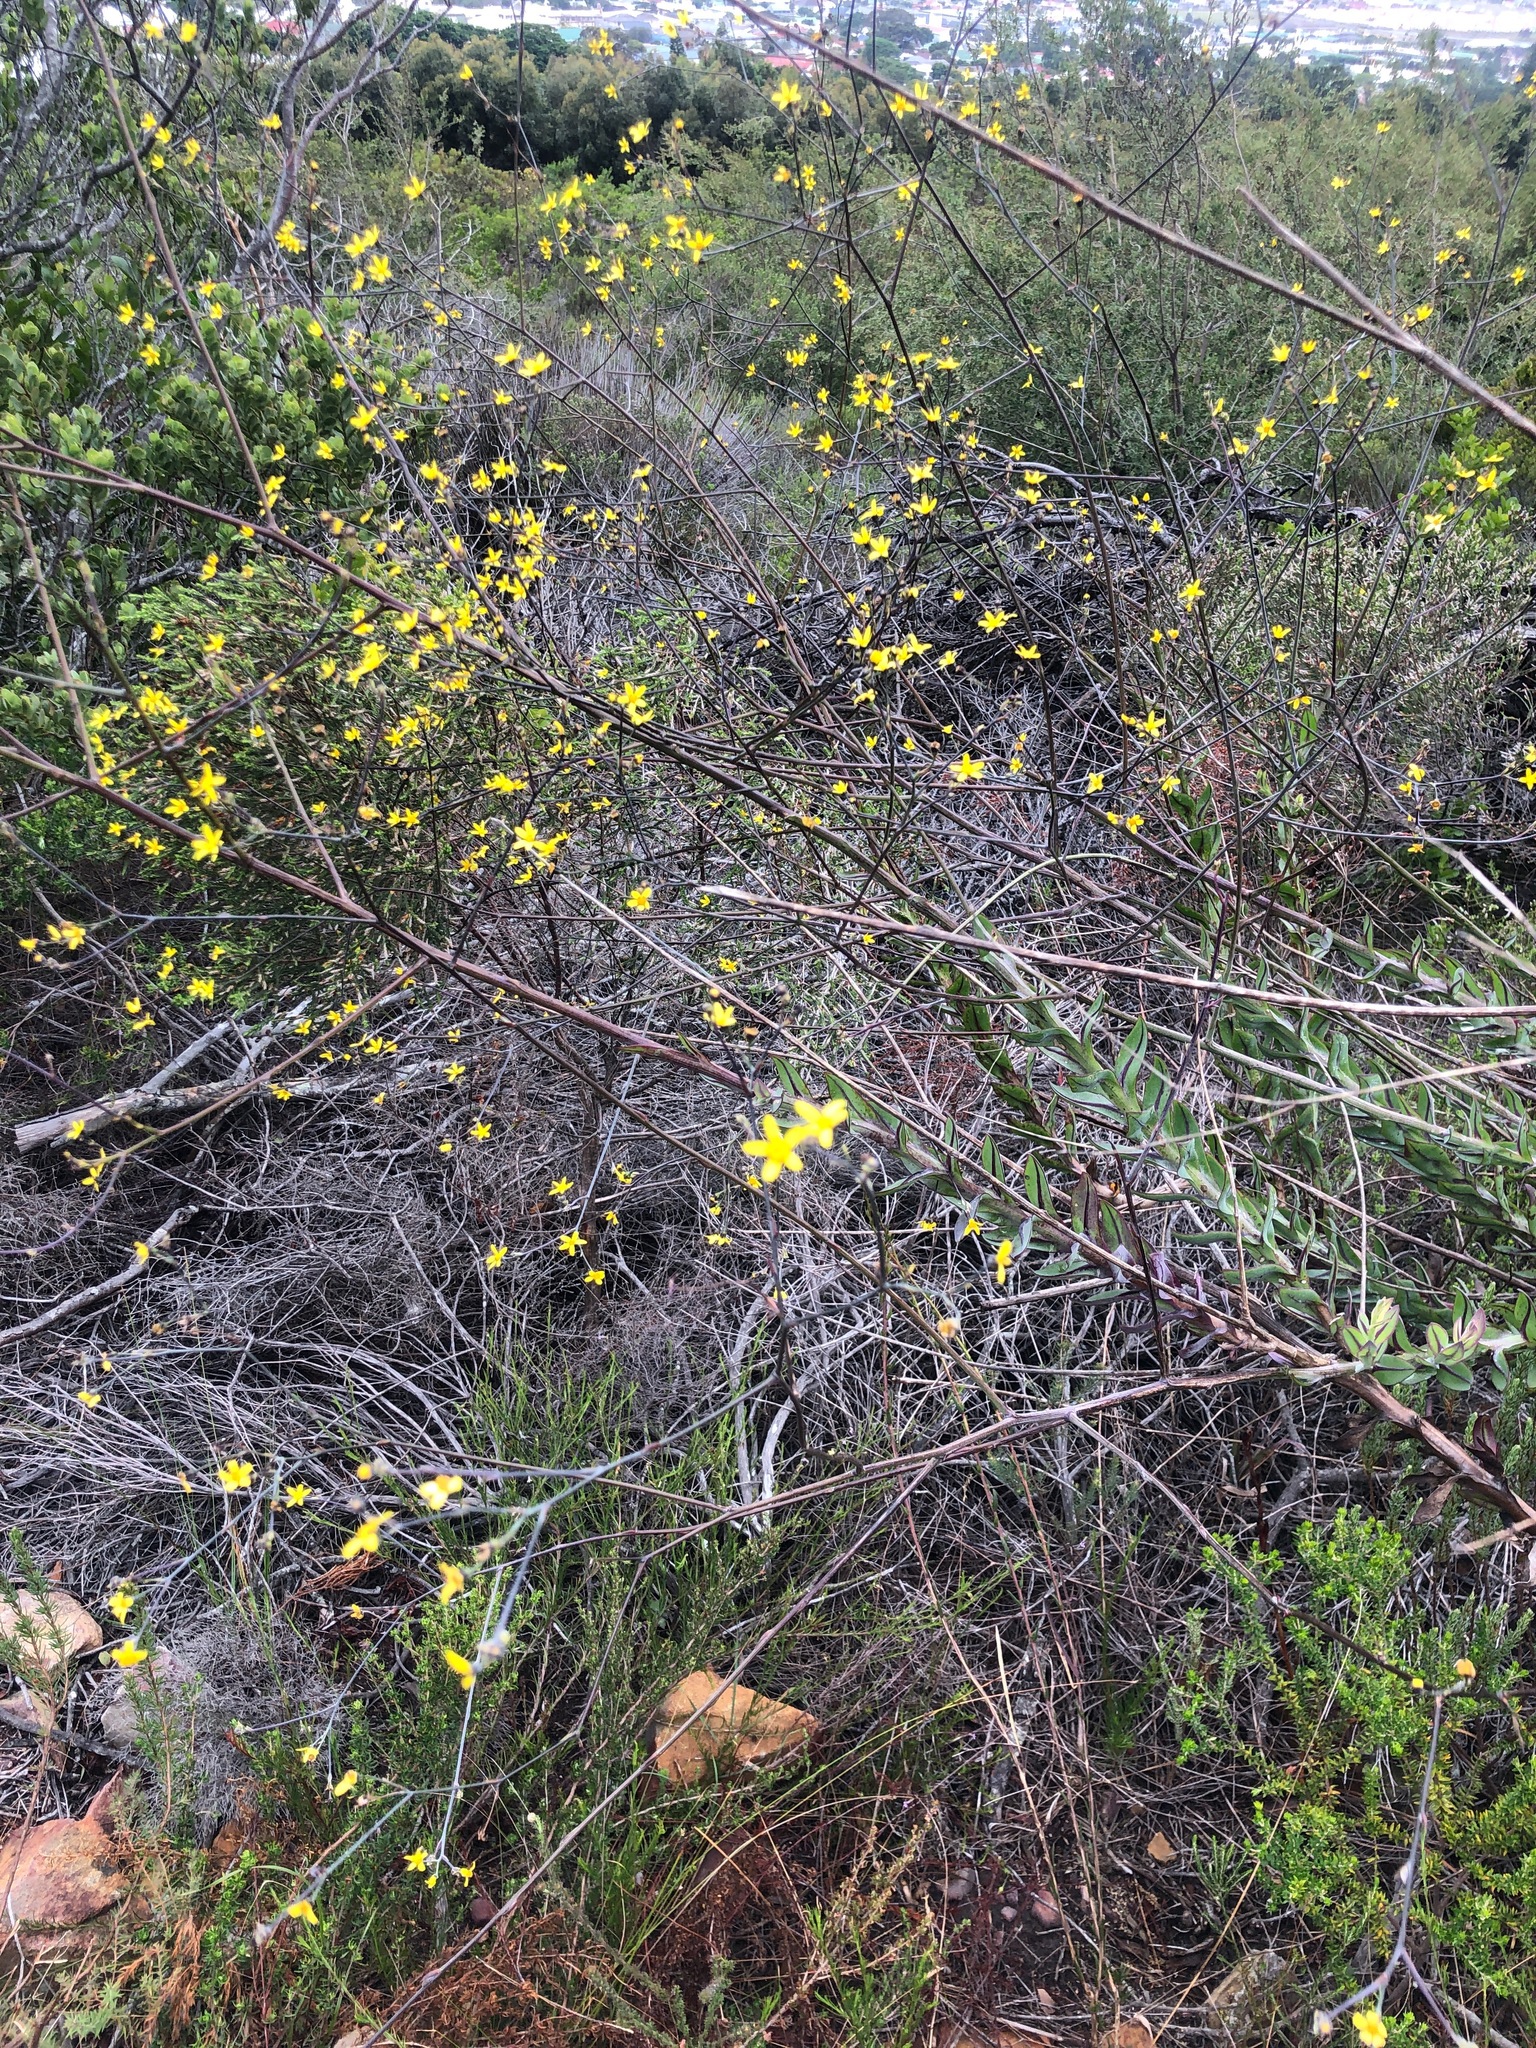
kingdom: Plantae
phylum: Tracheophyta
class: Magnoliopsida
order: Asterales
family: Asteraceae
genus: Othonna
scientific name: Othonna quinquedentata
